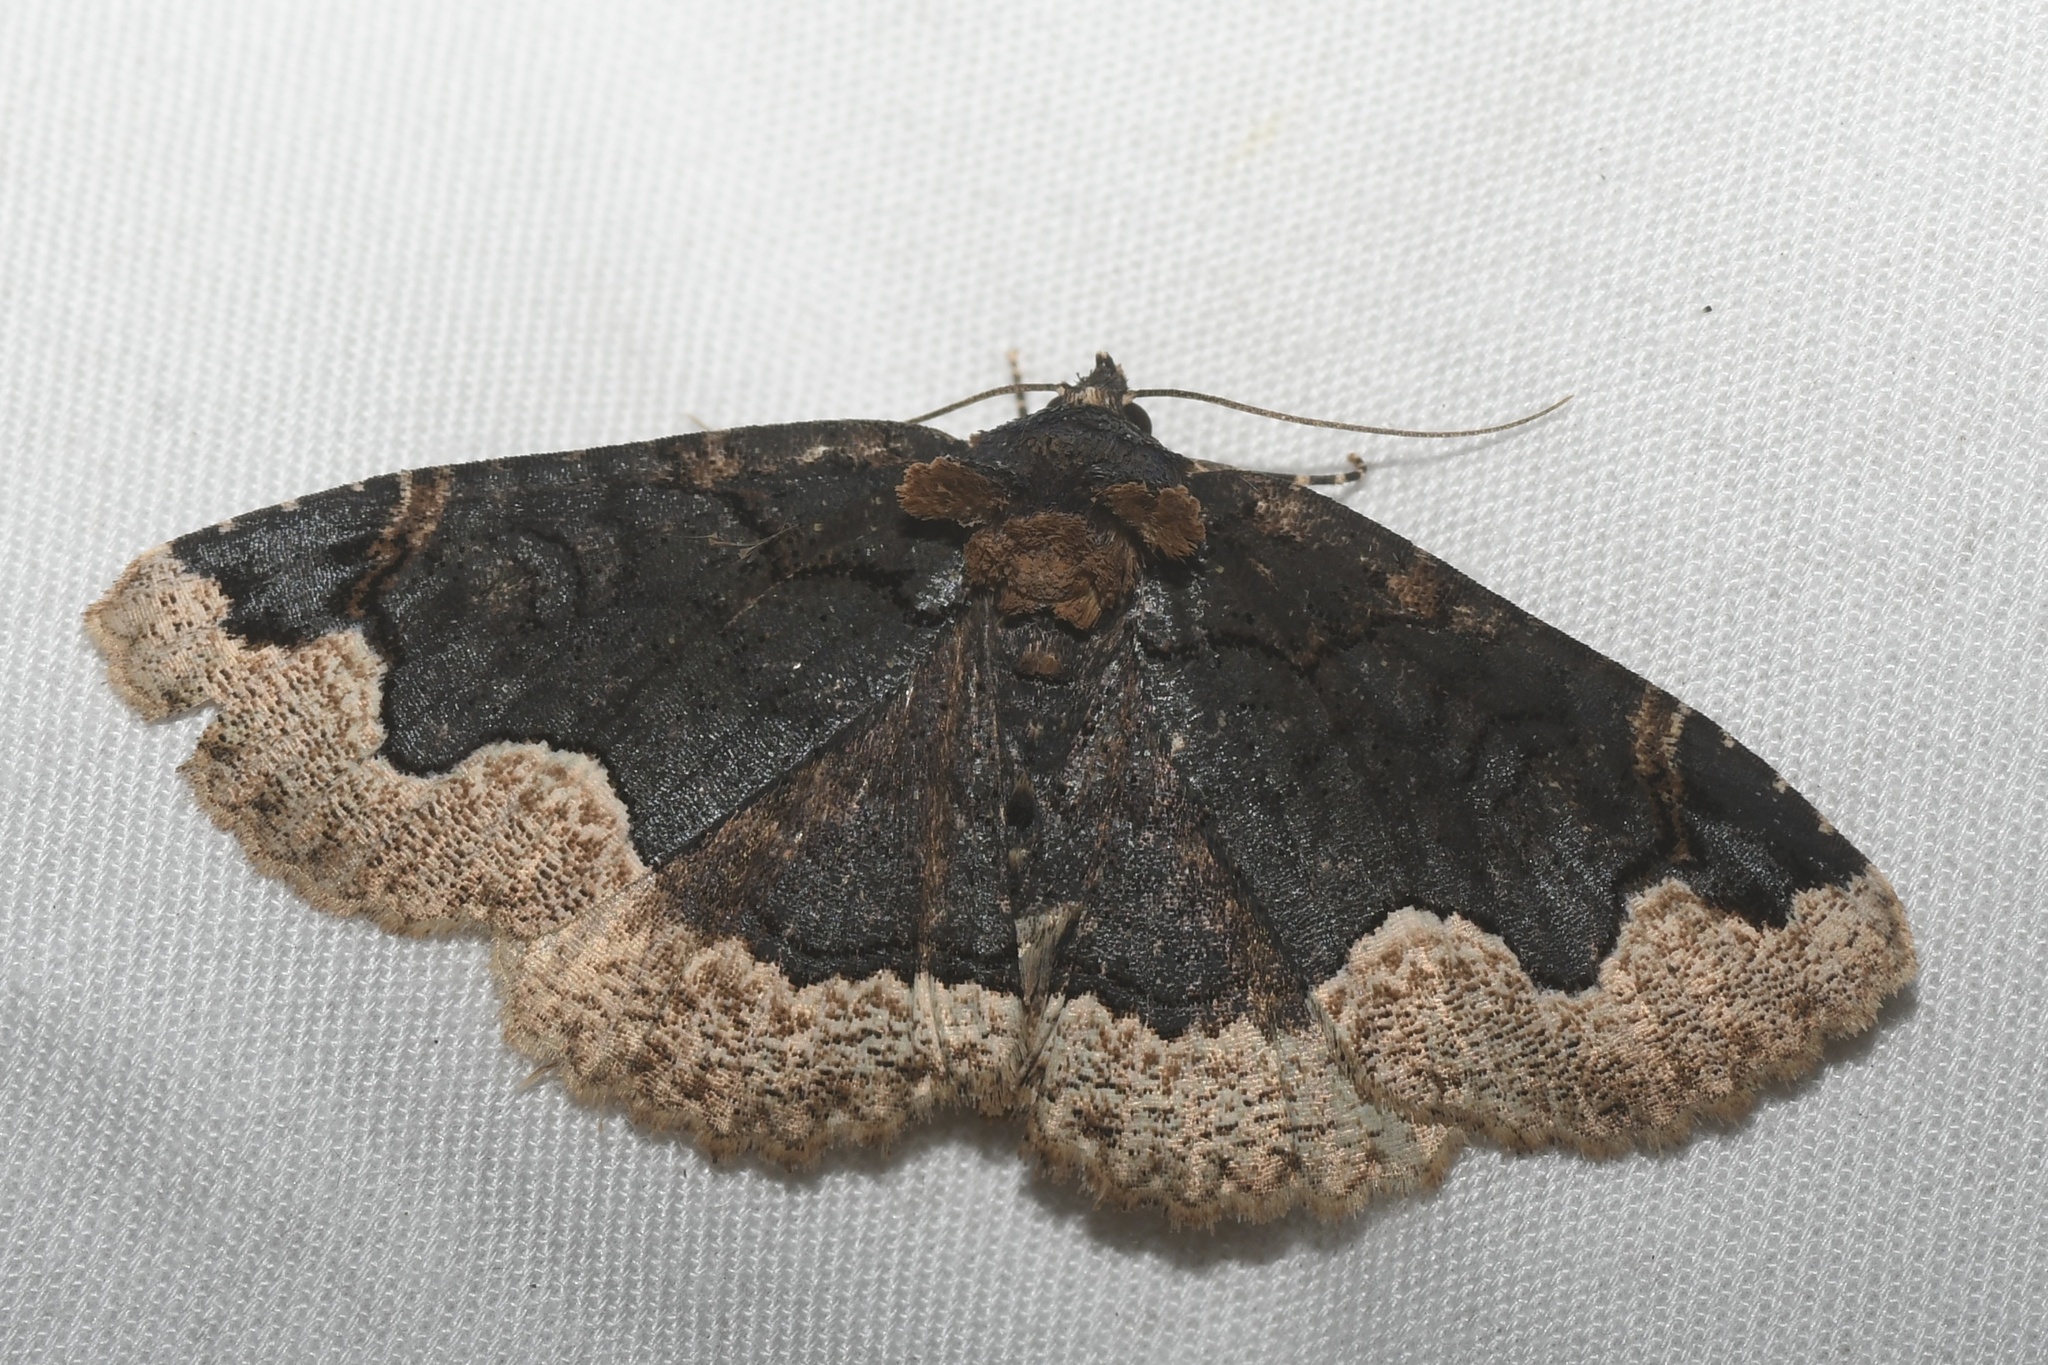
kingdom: Animalia
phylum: Arthropoda
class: Insecta
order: Lepidoptera
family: Erebidae
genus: Zale
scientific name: Zale horrida
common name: Horrid zale moth
